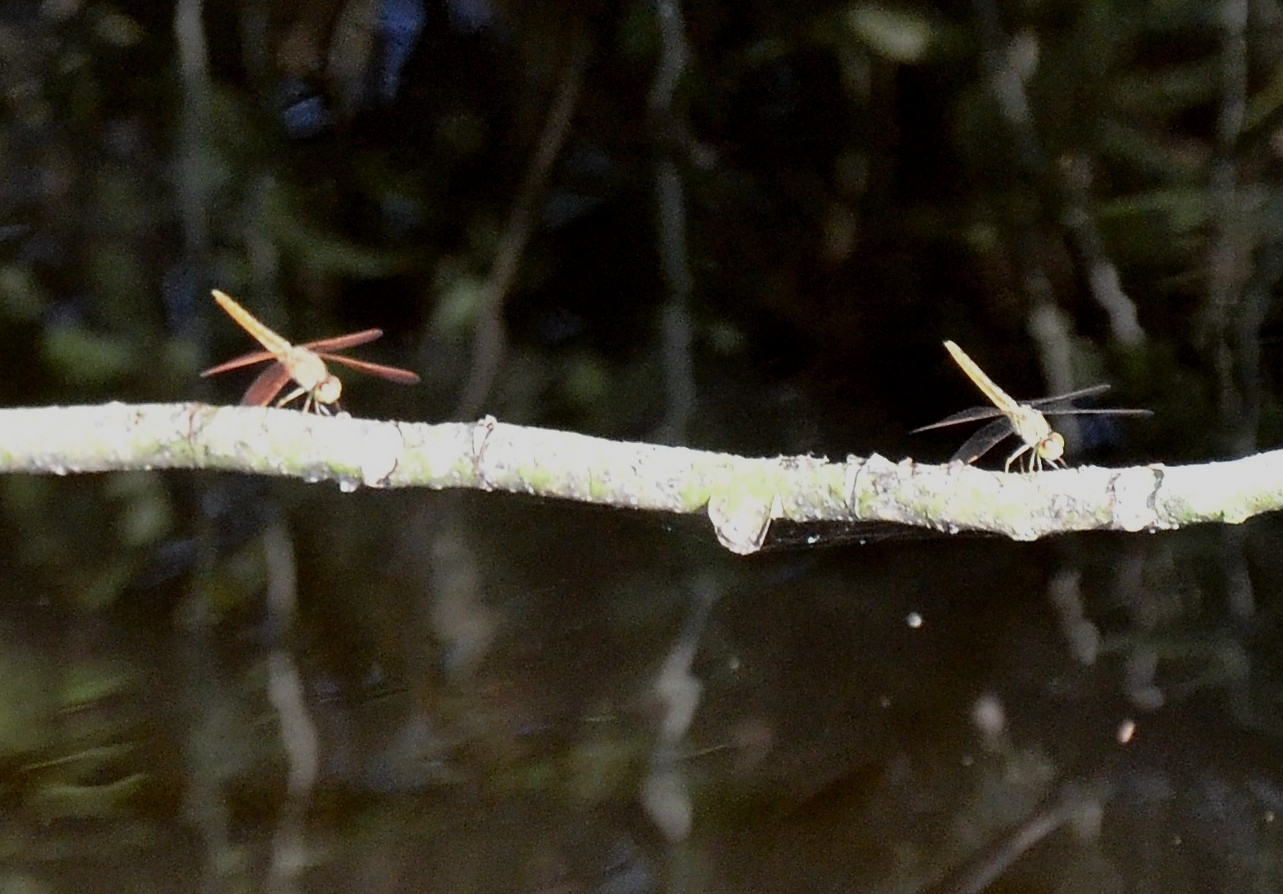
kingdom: Animalia
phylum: Arthropoda
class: Insecta
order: Odonata
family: Libellulidae
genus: Brachythemis
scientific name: Brachythemis contaminata
